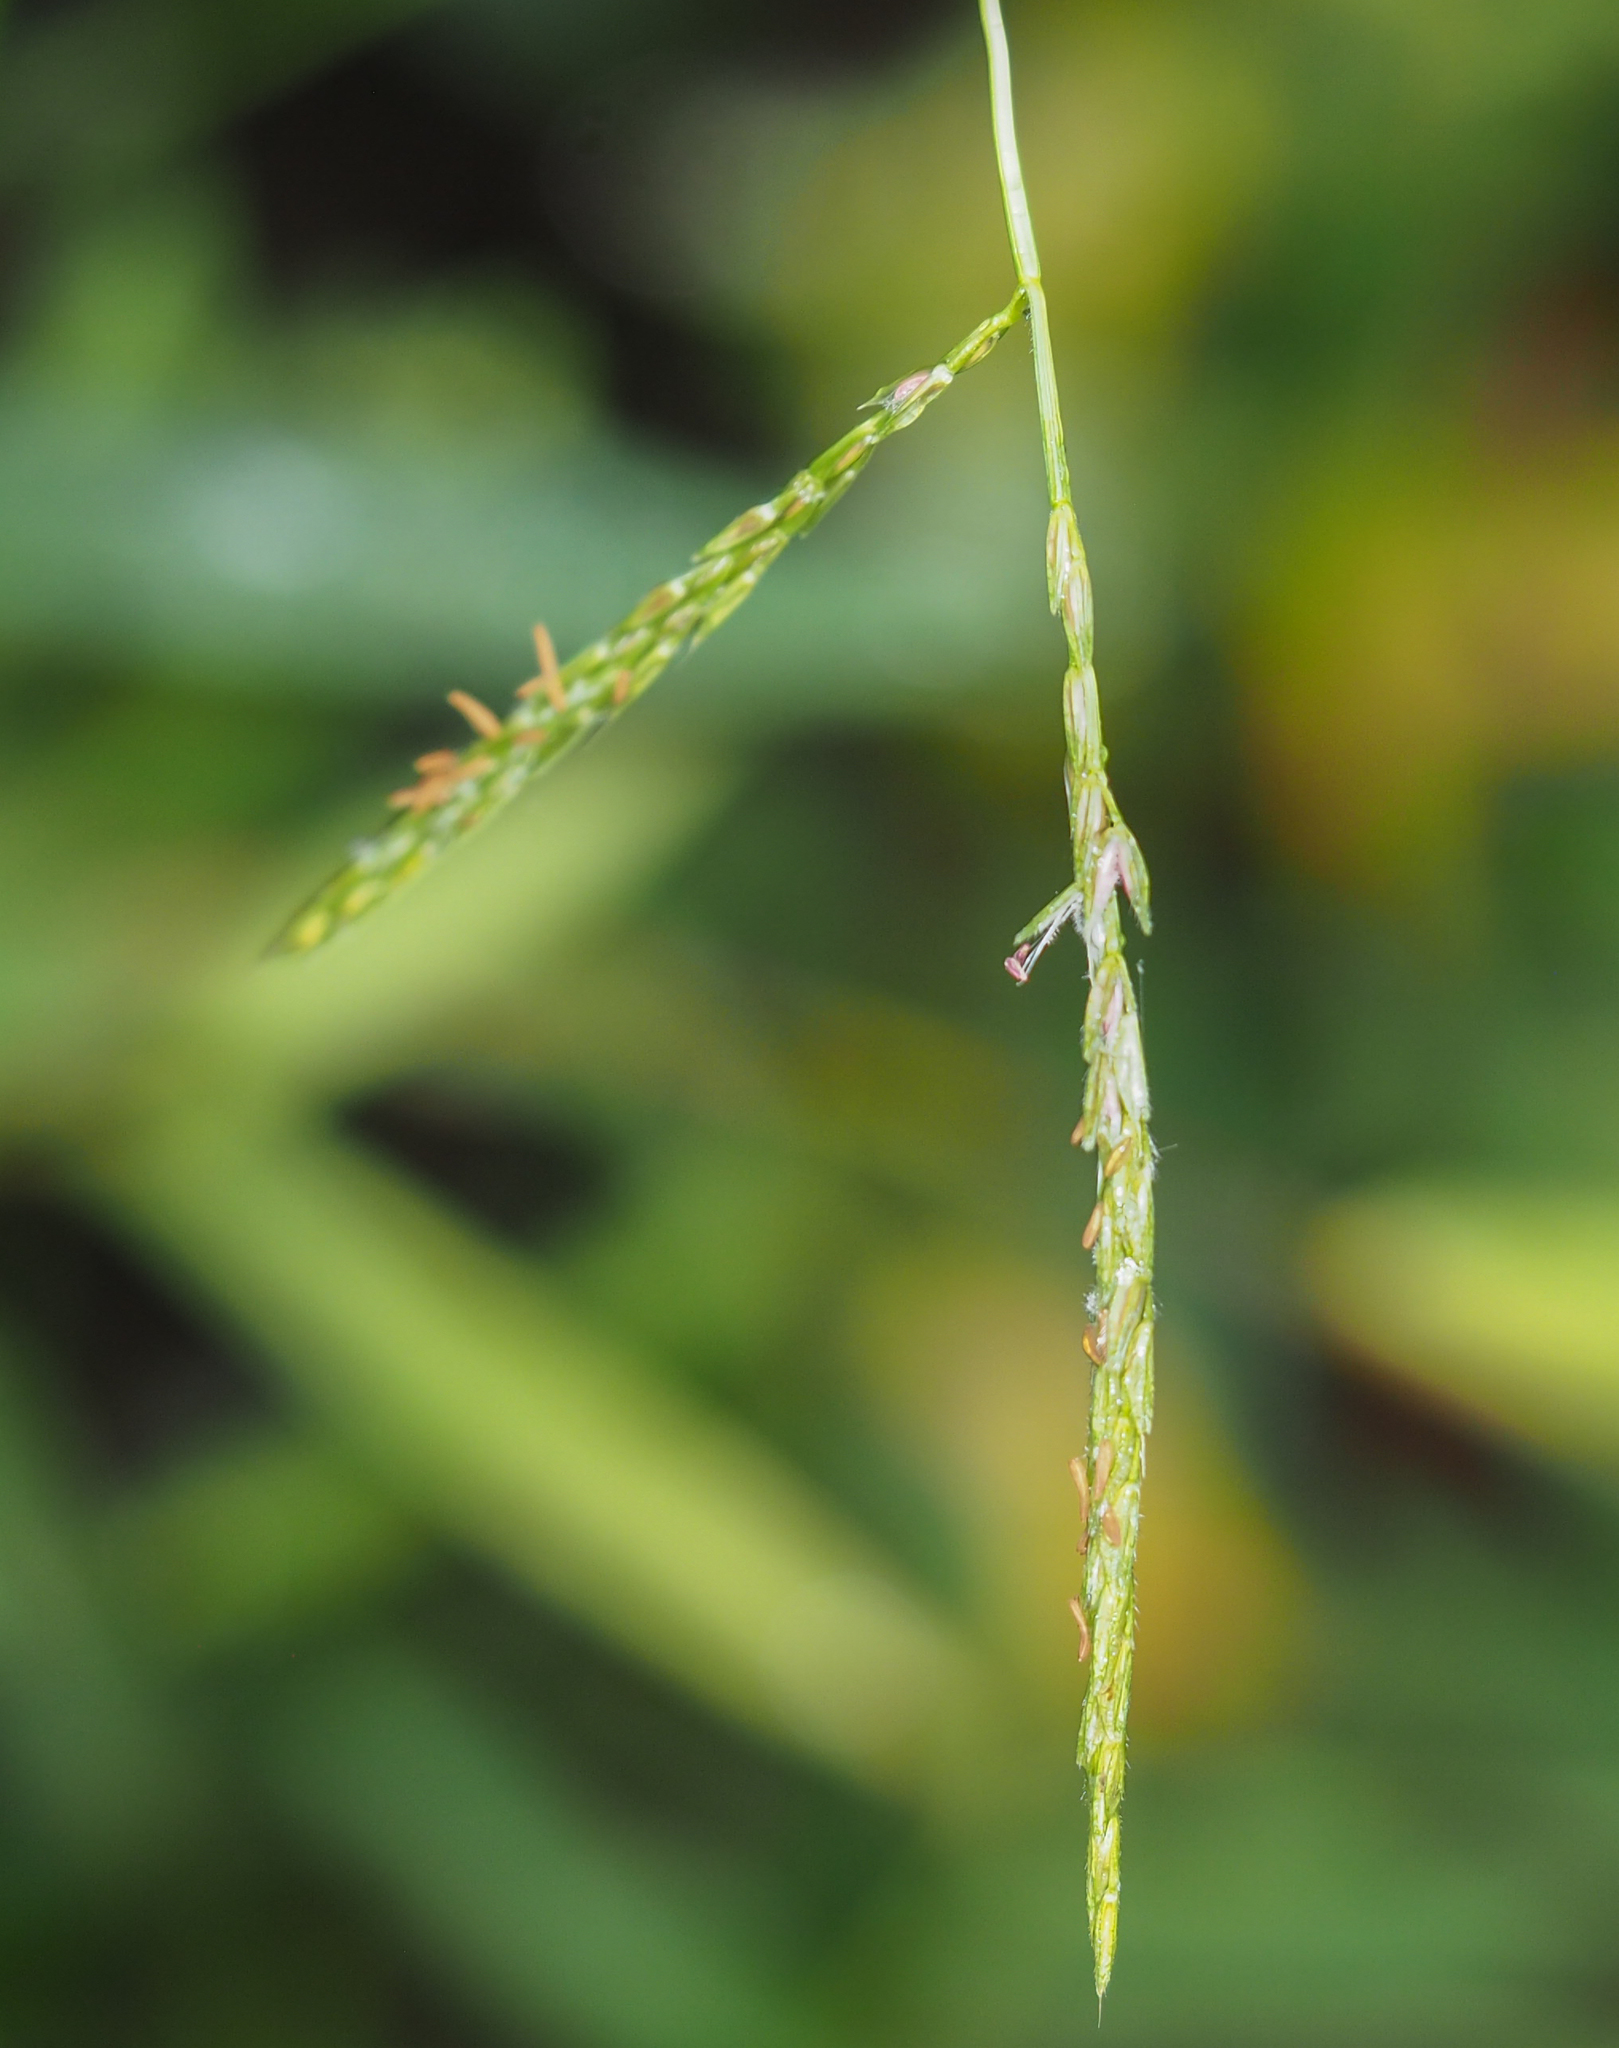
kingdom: Plantae
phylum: Tracheophyta
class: Liliopsida
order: Poales
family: Poaceae
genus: Microstegium
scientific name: Microstegium vimineum
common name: Japanese stiltgrass
